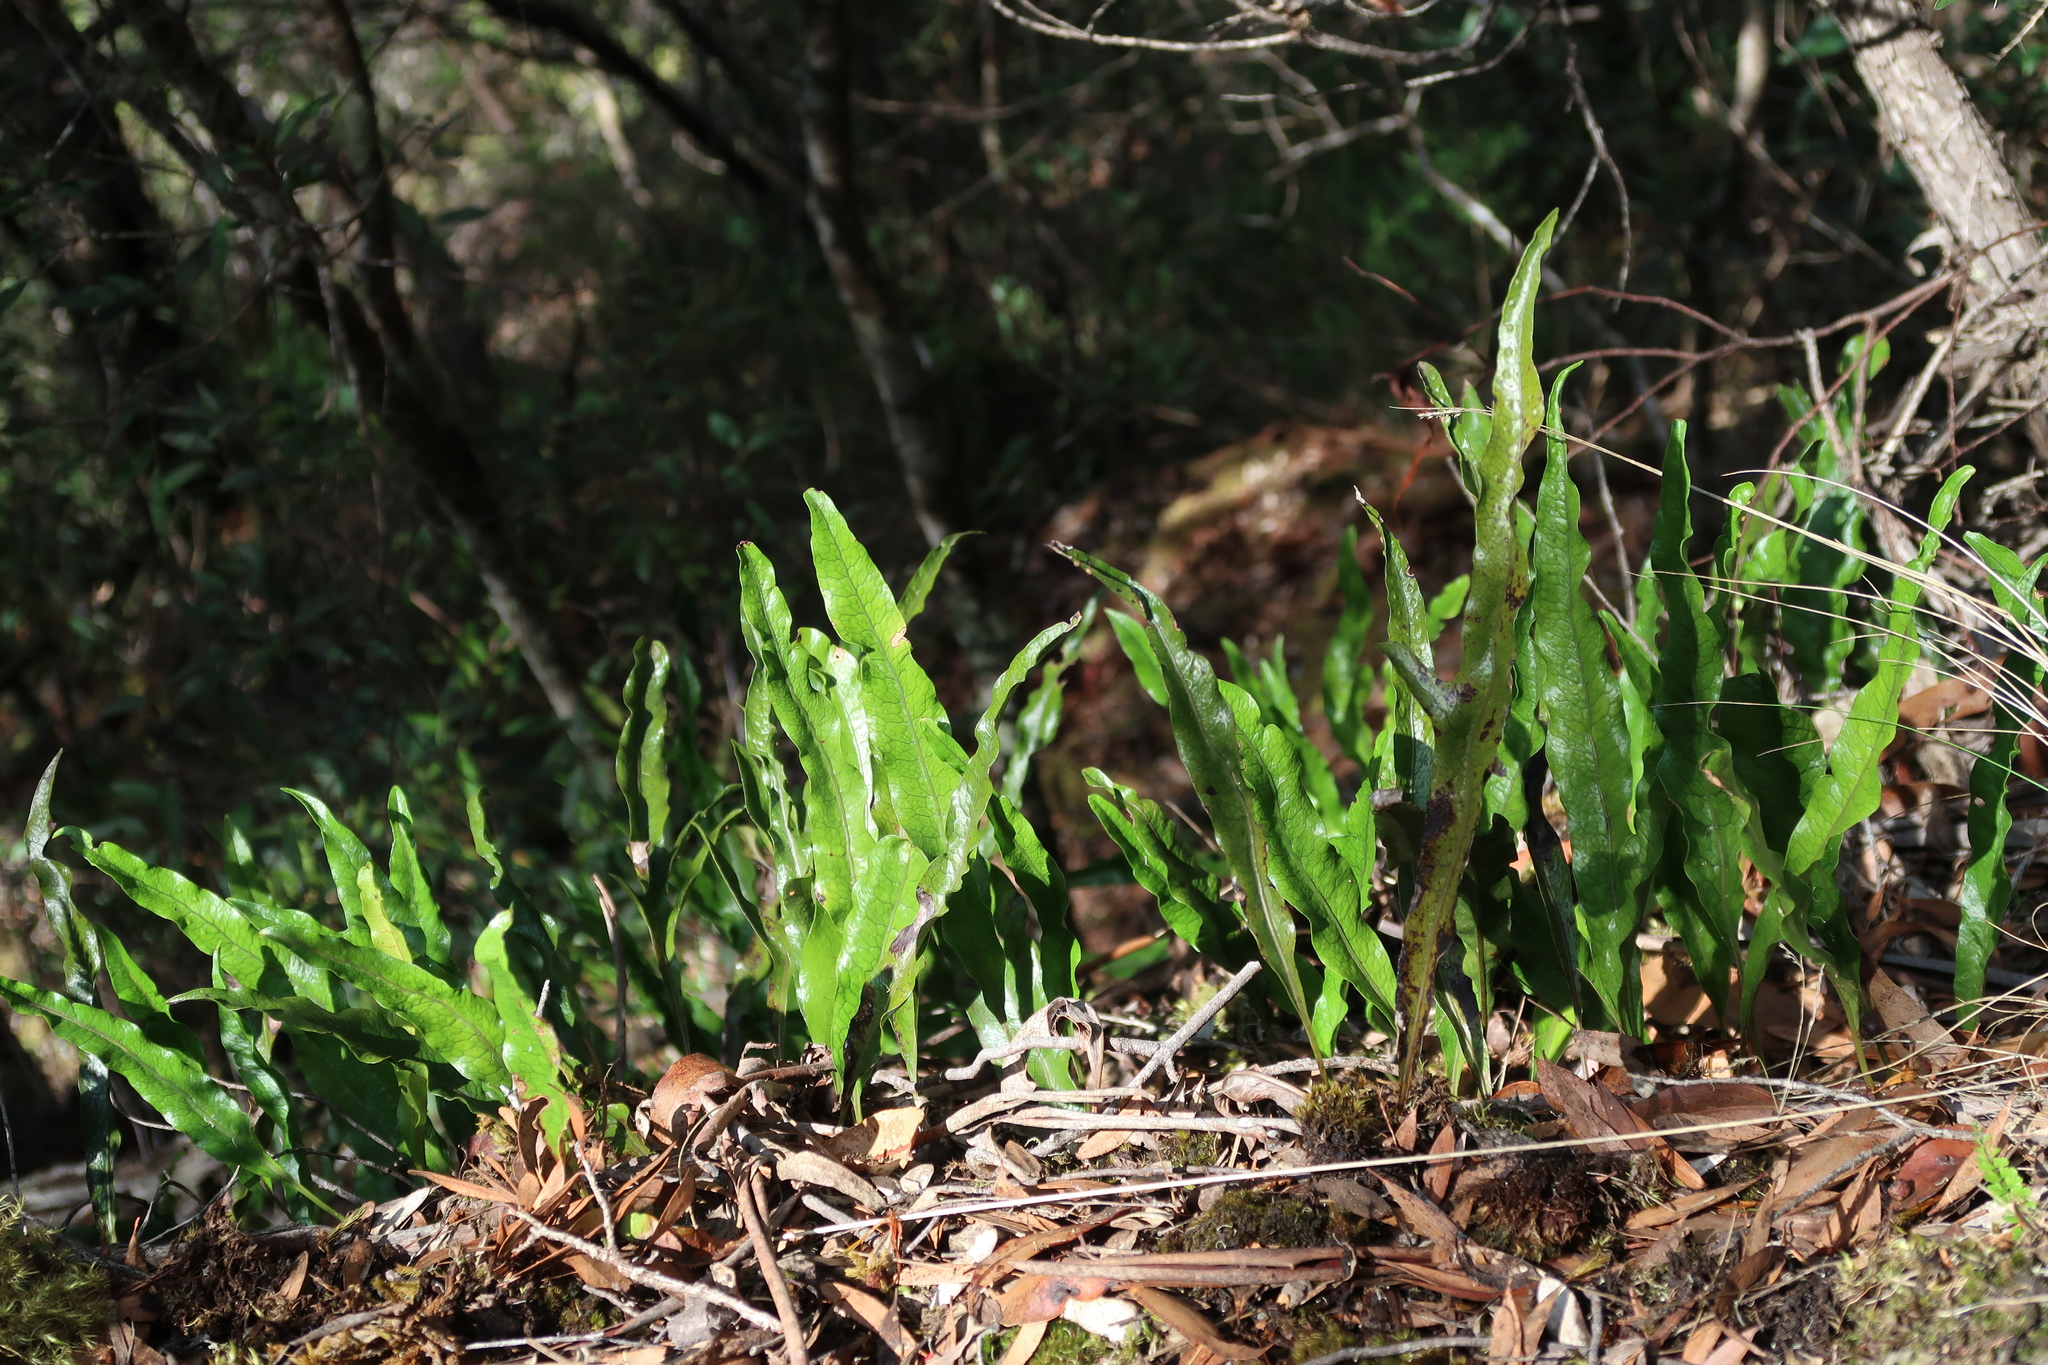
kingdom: Plantae
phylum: Tracheophyta
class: Polypodiopsida
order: Polypodiales
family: Polypodiaceae
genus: Lecanopteris
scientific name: Lecanopteris pustulata
